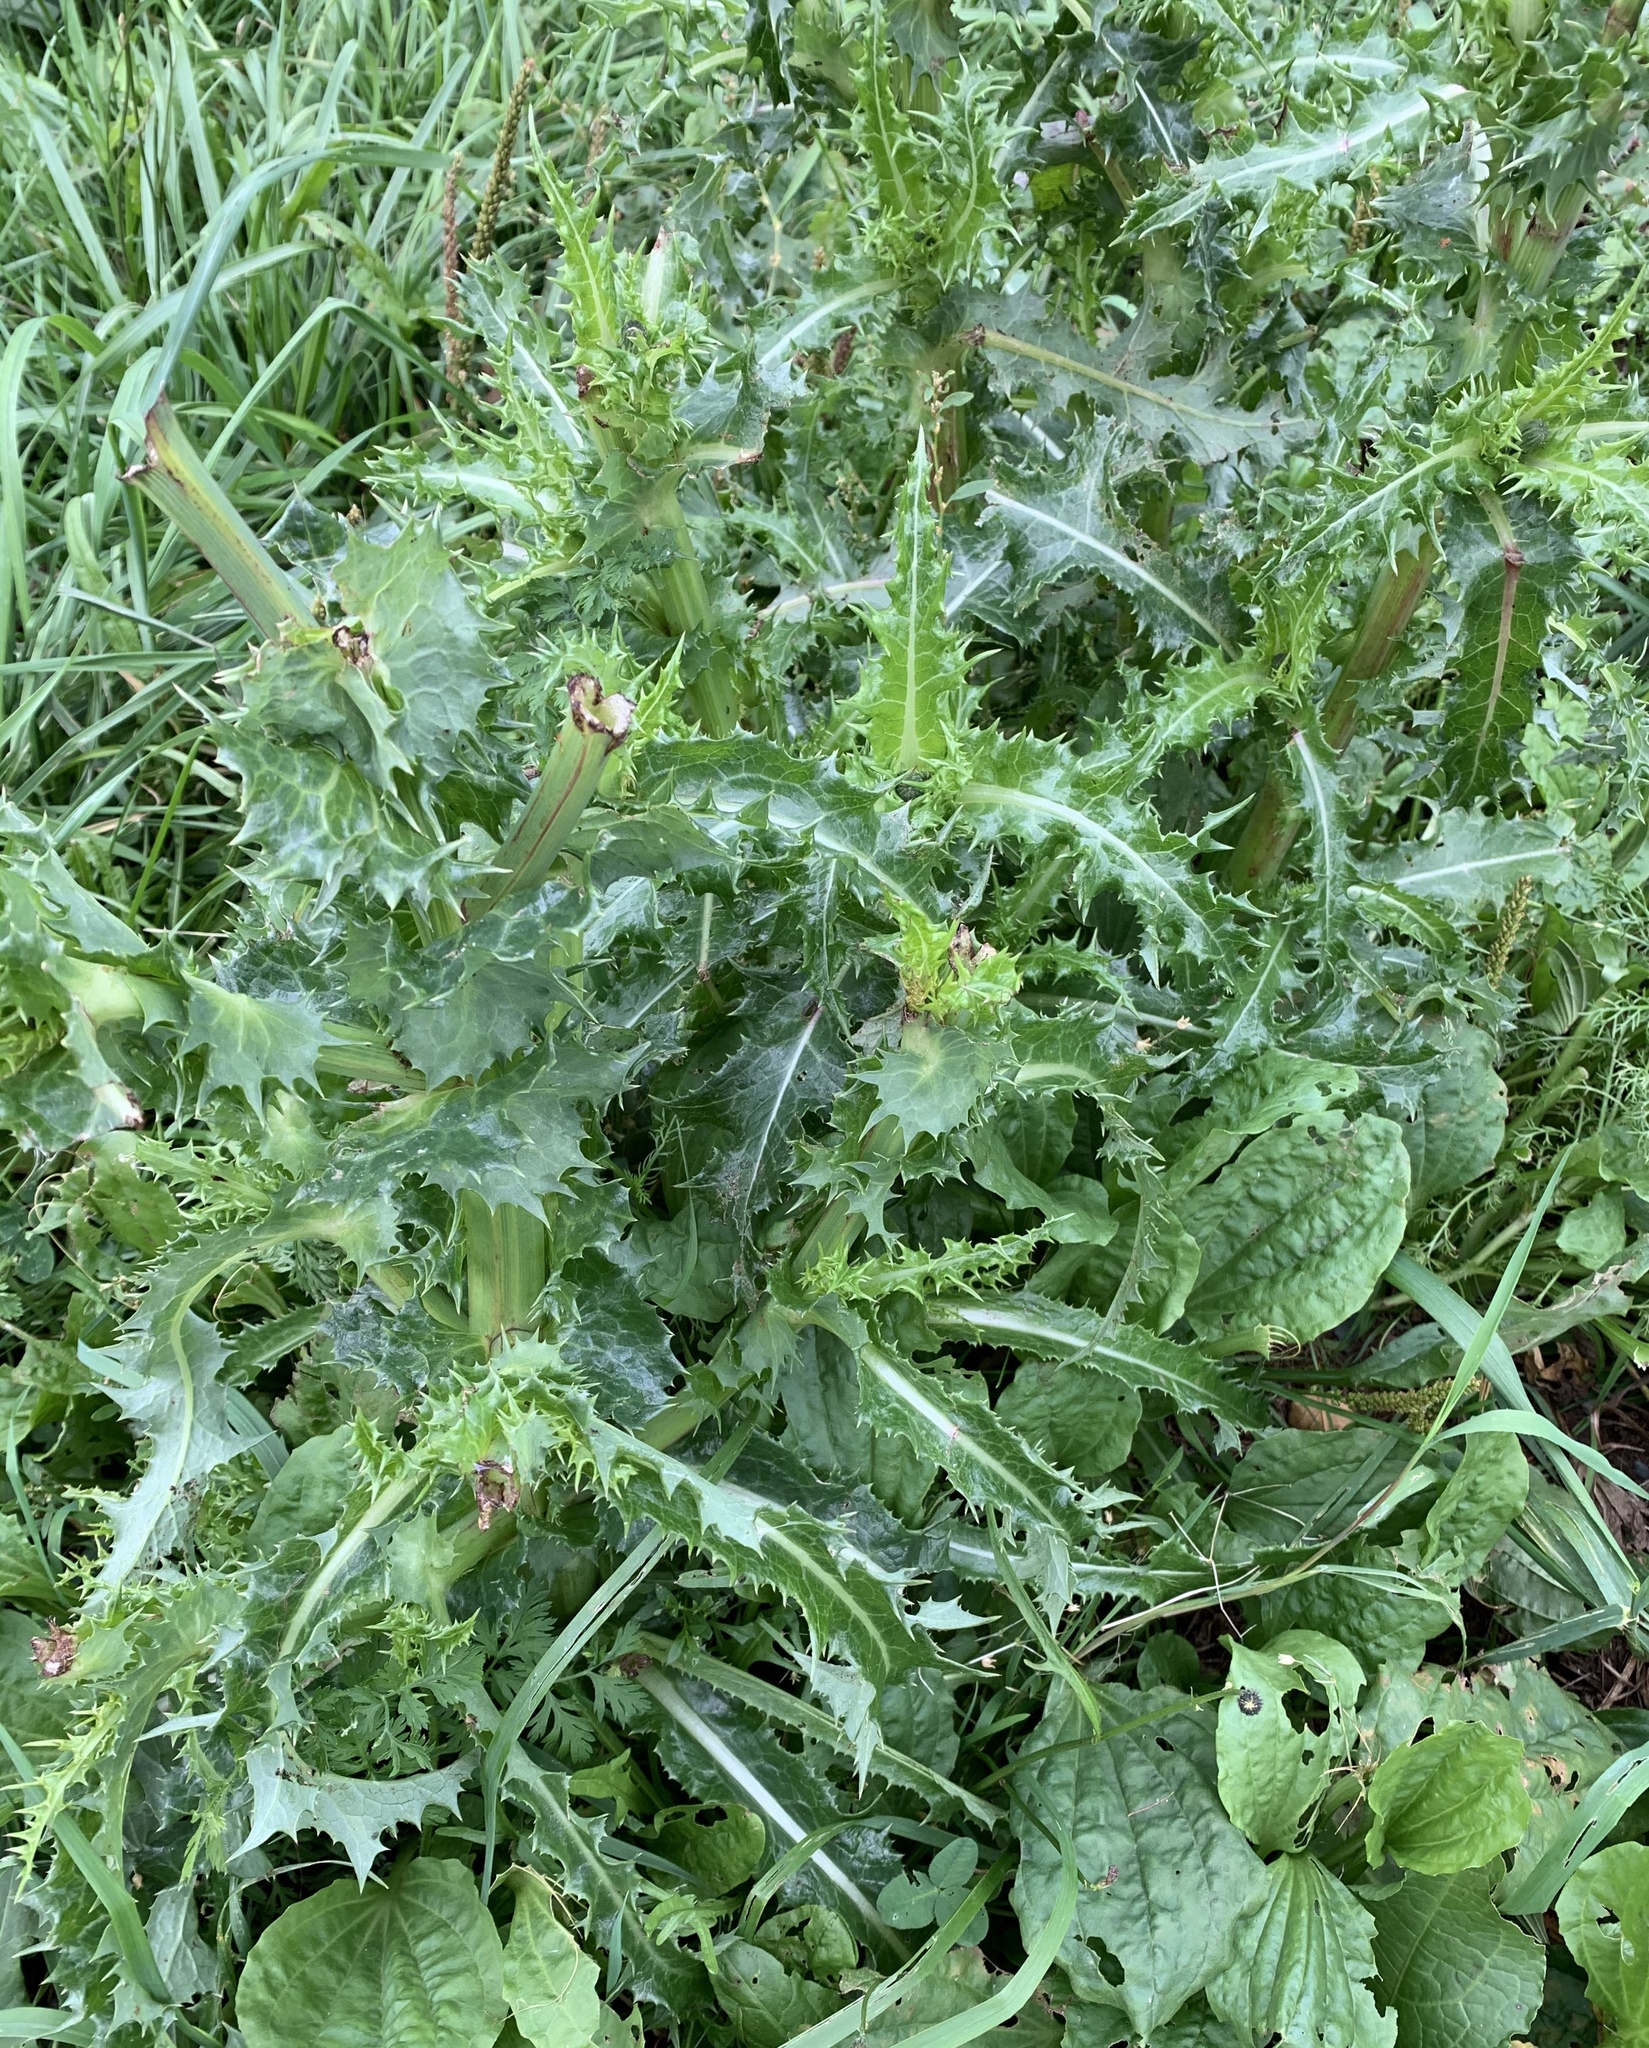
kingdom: Plantae
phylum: Tracheophyta
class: Magnoliopsida
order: Asterales
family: Asteraceae
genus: Sonchus
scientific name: Sonchus asper
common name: Prickly sow-thistle
